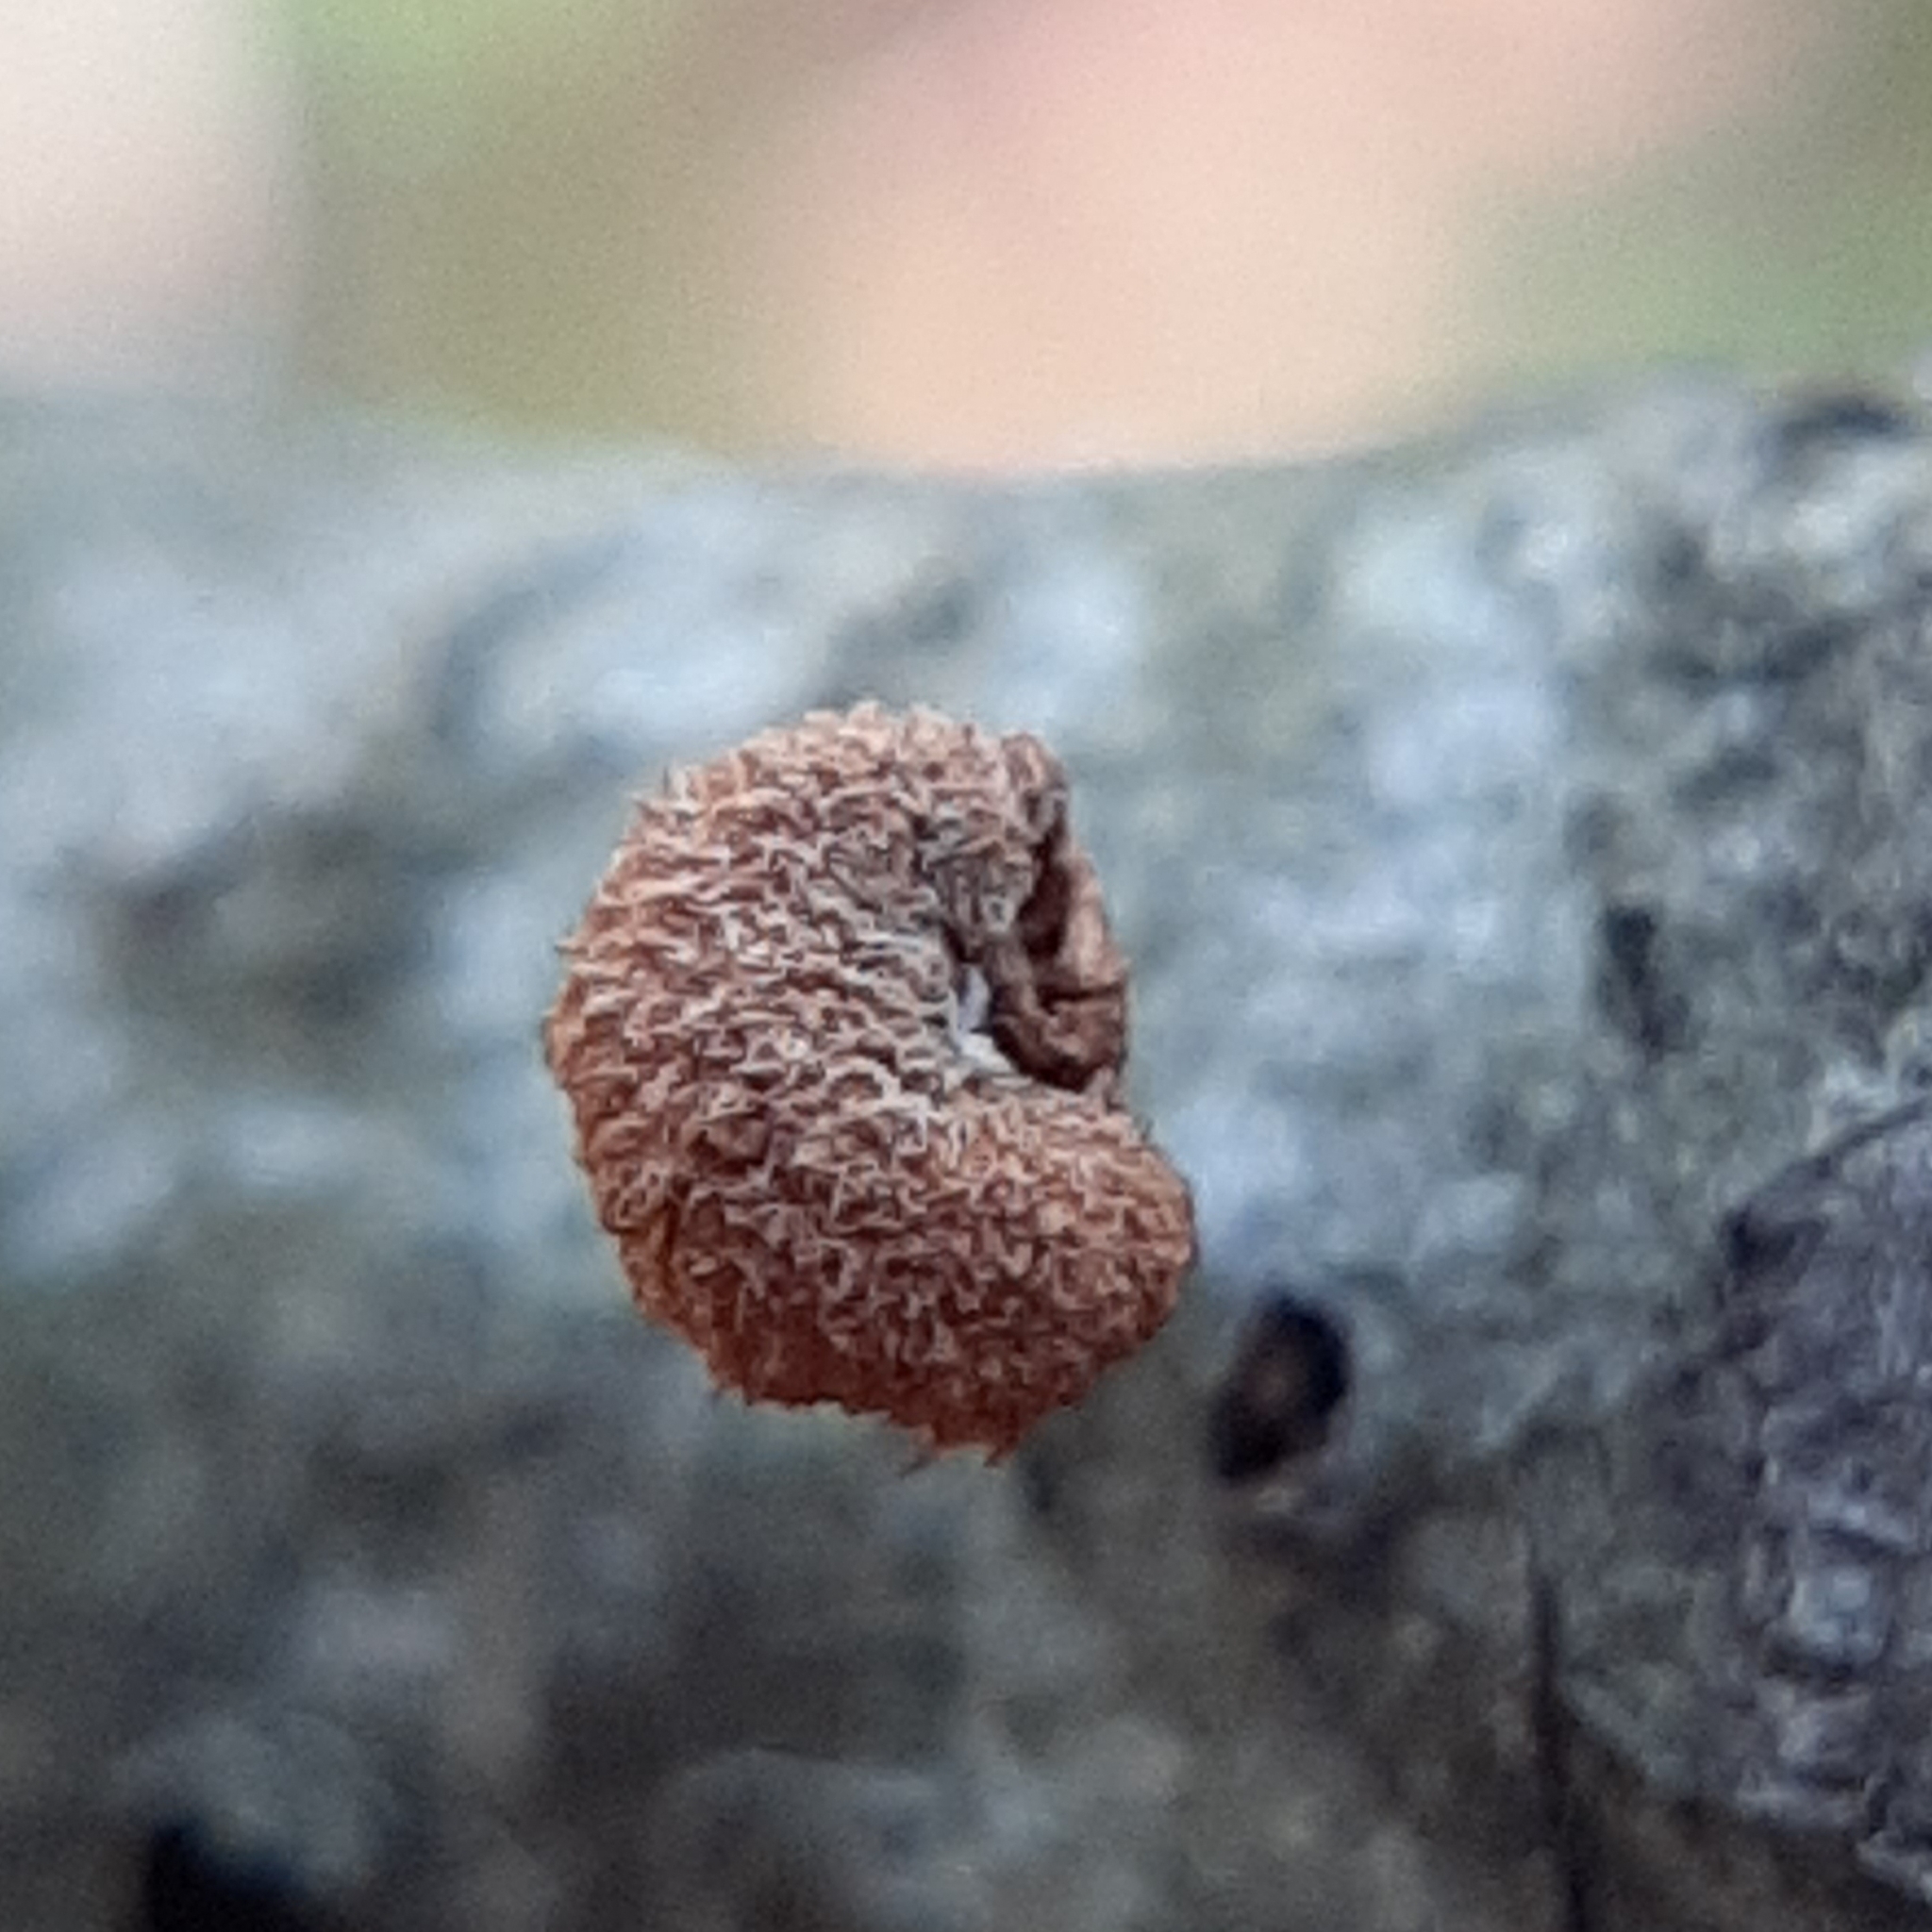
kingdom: Fungi
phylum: Basidiomycota
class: Agaricomycetes
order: Agaricales
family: Tubariaceae
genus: Flammulaster
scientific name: Flammulaster erinaceellus
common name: Powder-scale pholiota
